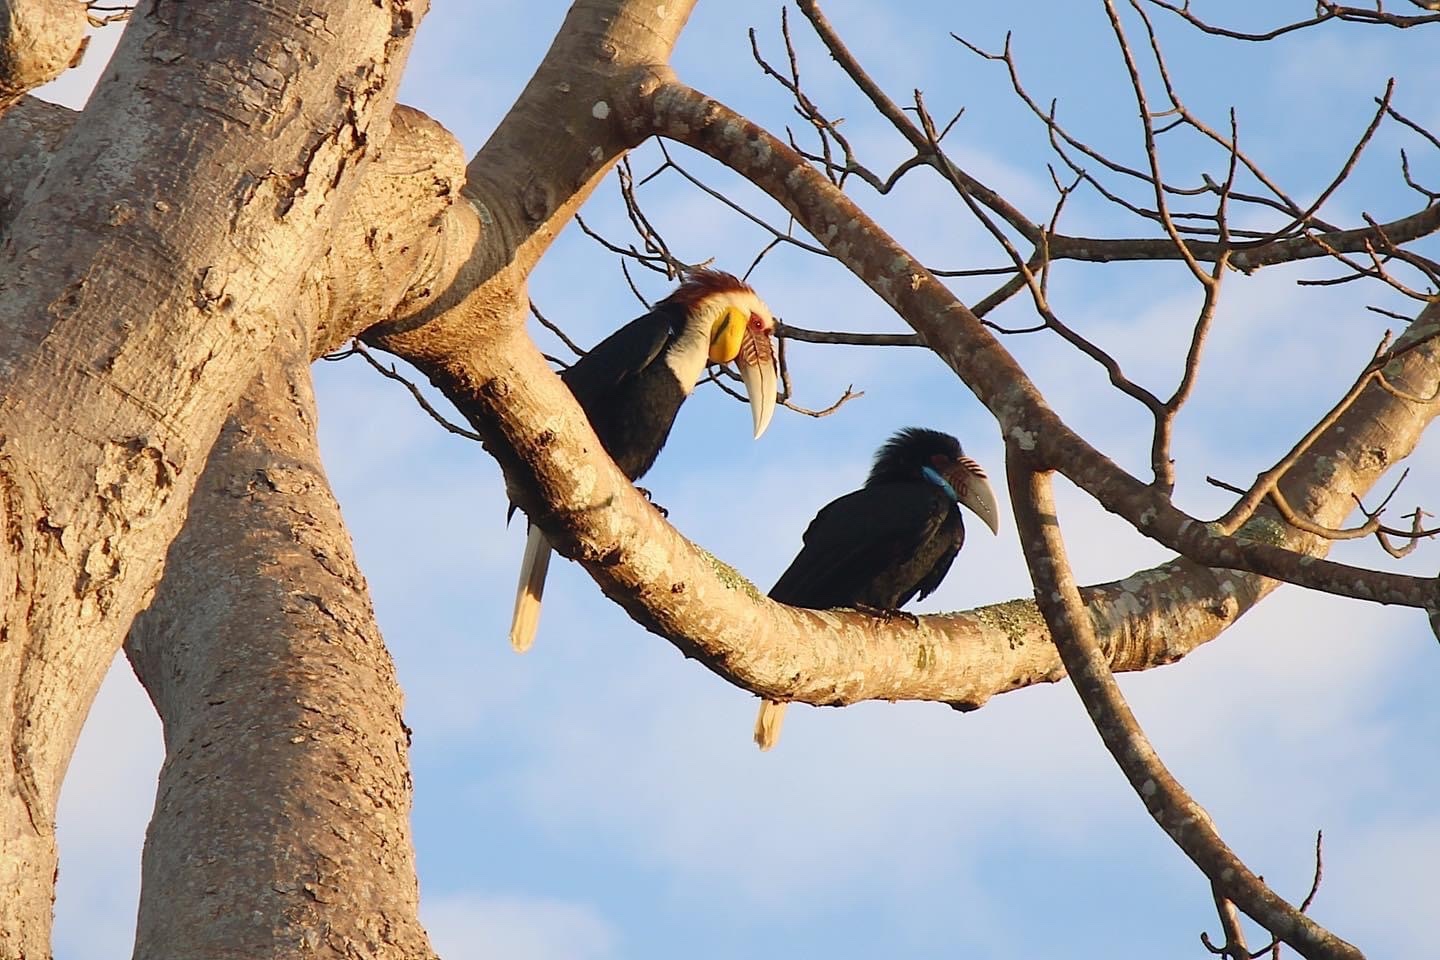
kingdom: Animalia
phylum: Chordata
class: Aves
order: Bucerotiformes
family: Bucerotidae
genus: Rhyticeros
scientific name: Rhyticeros undulatus
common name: Wreathed hornbill
